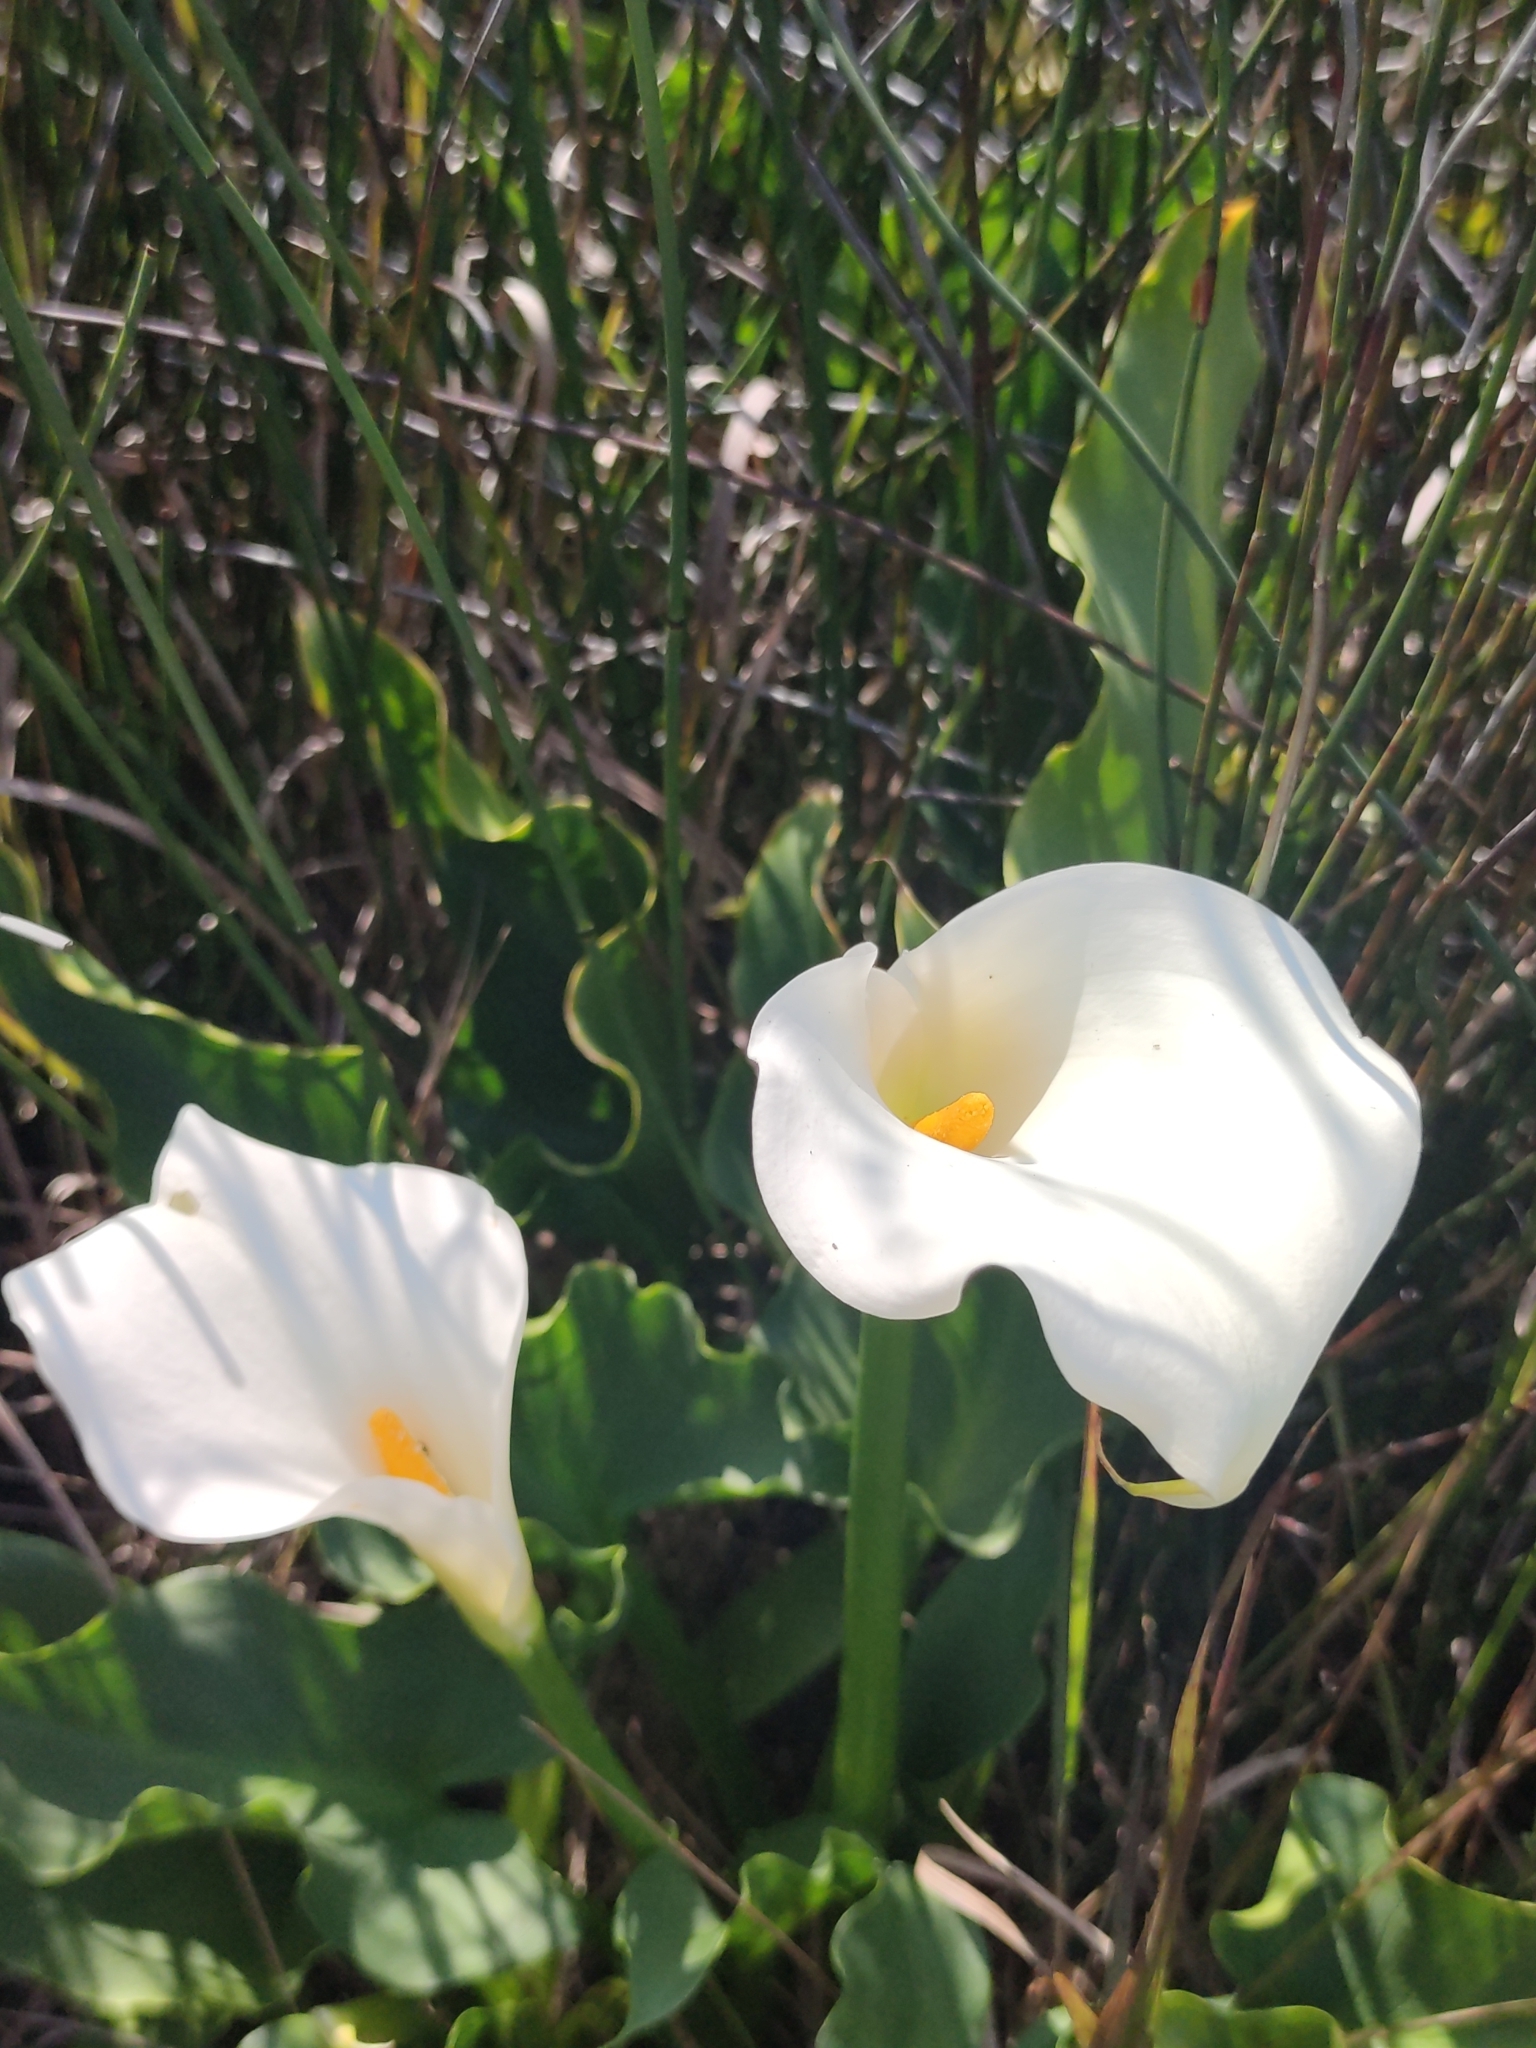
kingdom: Plantae
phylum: Tracheophyta
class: Liliopsida
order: Alismatales
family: Araceae
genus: Zantedeschia
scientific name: Zantedeschia aethiopica
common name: Altar-lily
